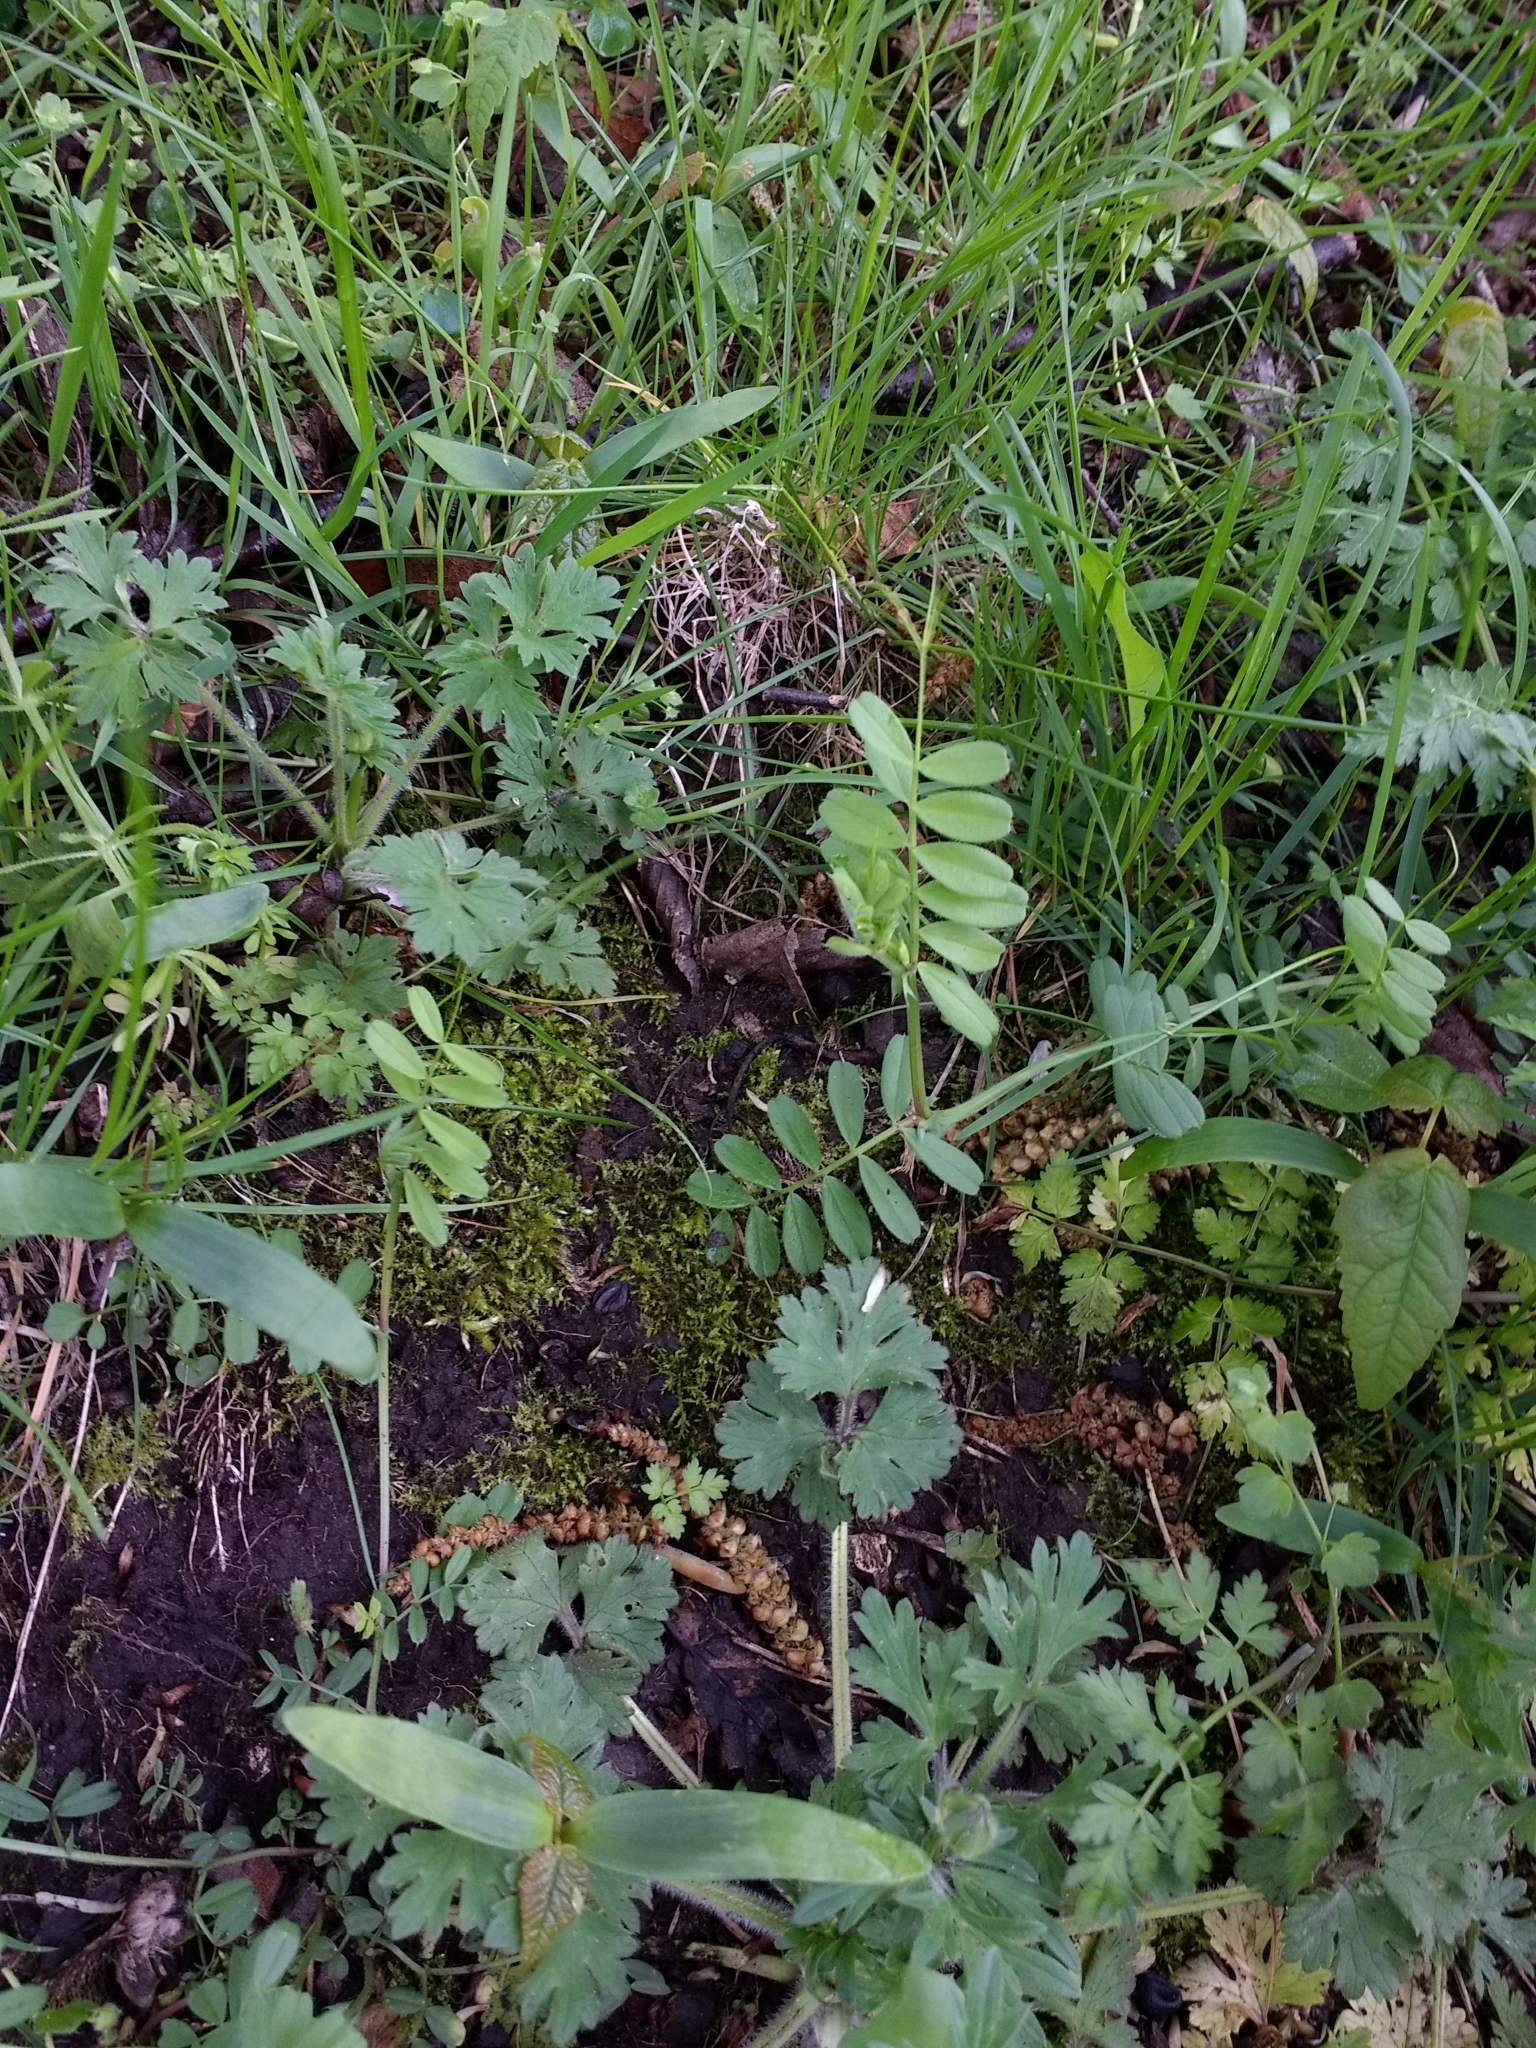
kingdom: Plantae
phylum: Tracheophyta
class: Magnoliopsida
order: Fabales
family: Fabaceae
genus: Vicia
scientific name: Vicia sativa
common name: Garden vetch
